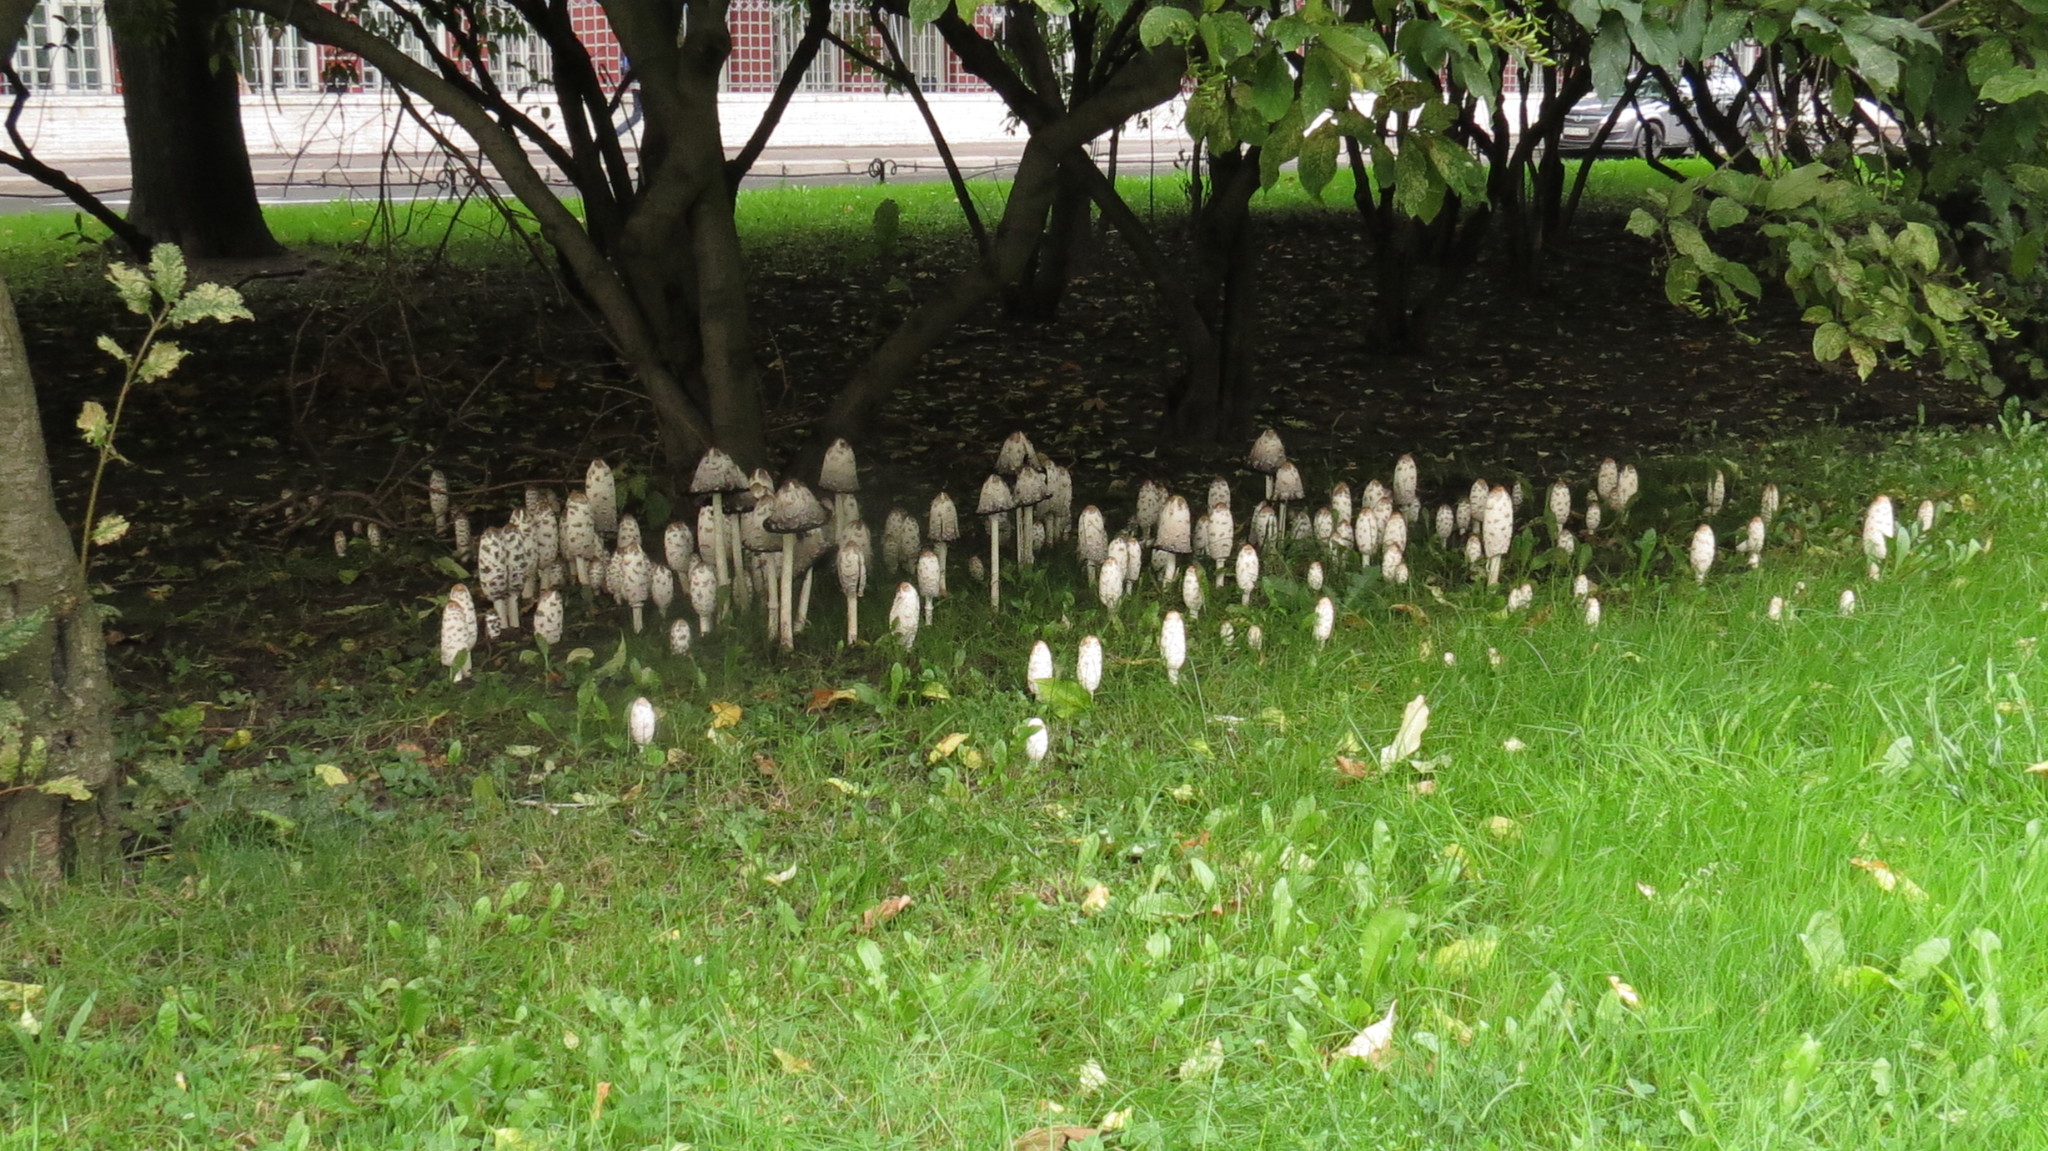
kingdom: Fungi
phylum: Basidiomycota
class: Agaricomycetes
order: Agaricales
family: Agaricaceae
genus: Coprinus
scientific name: Coprinus comatus
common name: Lawyer's wig
